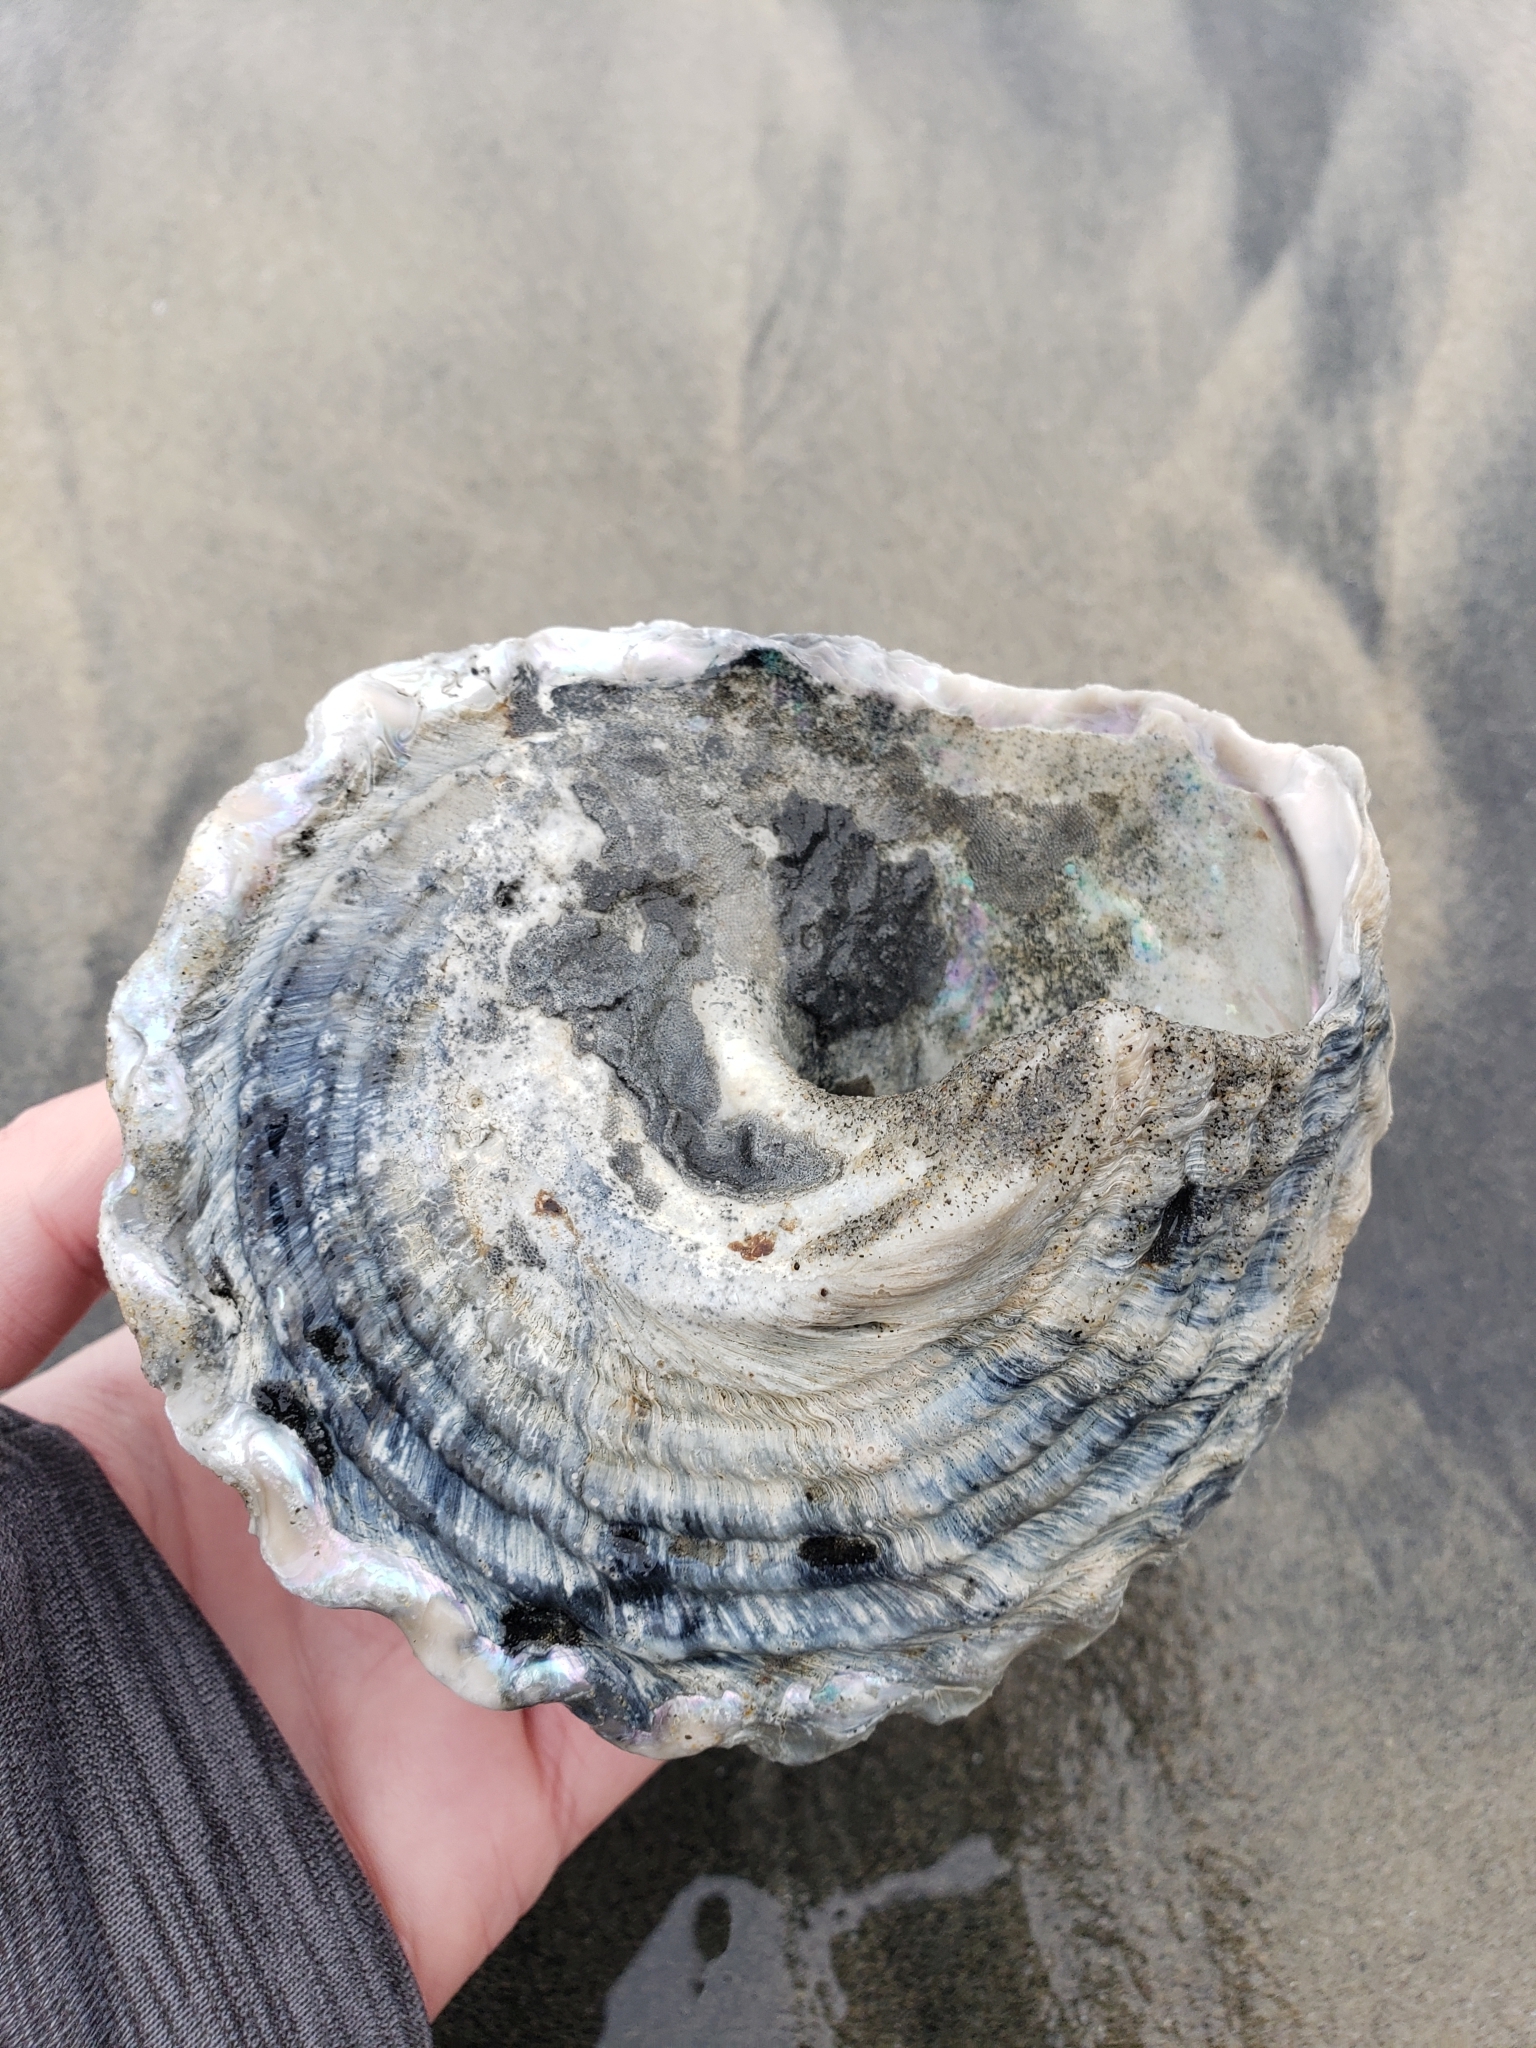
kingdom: Animalia
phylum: Mollusca
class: Gastropoda
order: Trochida
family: Turbinidae
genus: Megastraea
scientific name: Megastraea undosa
